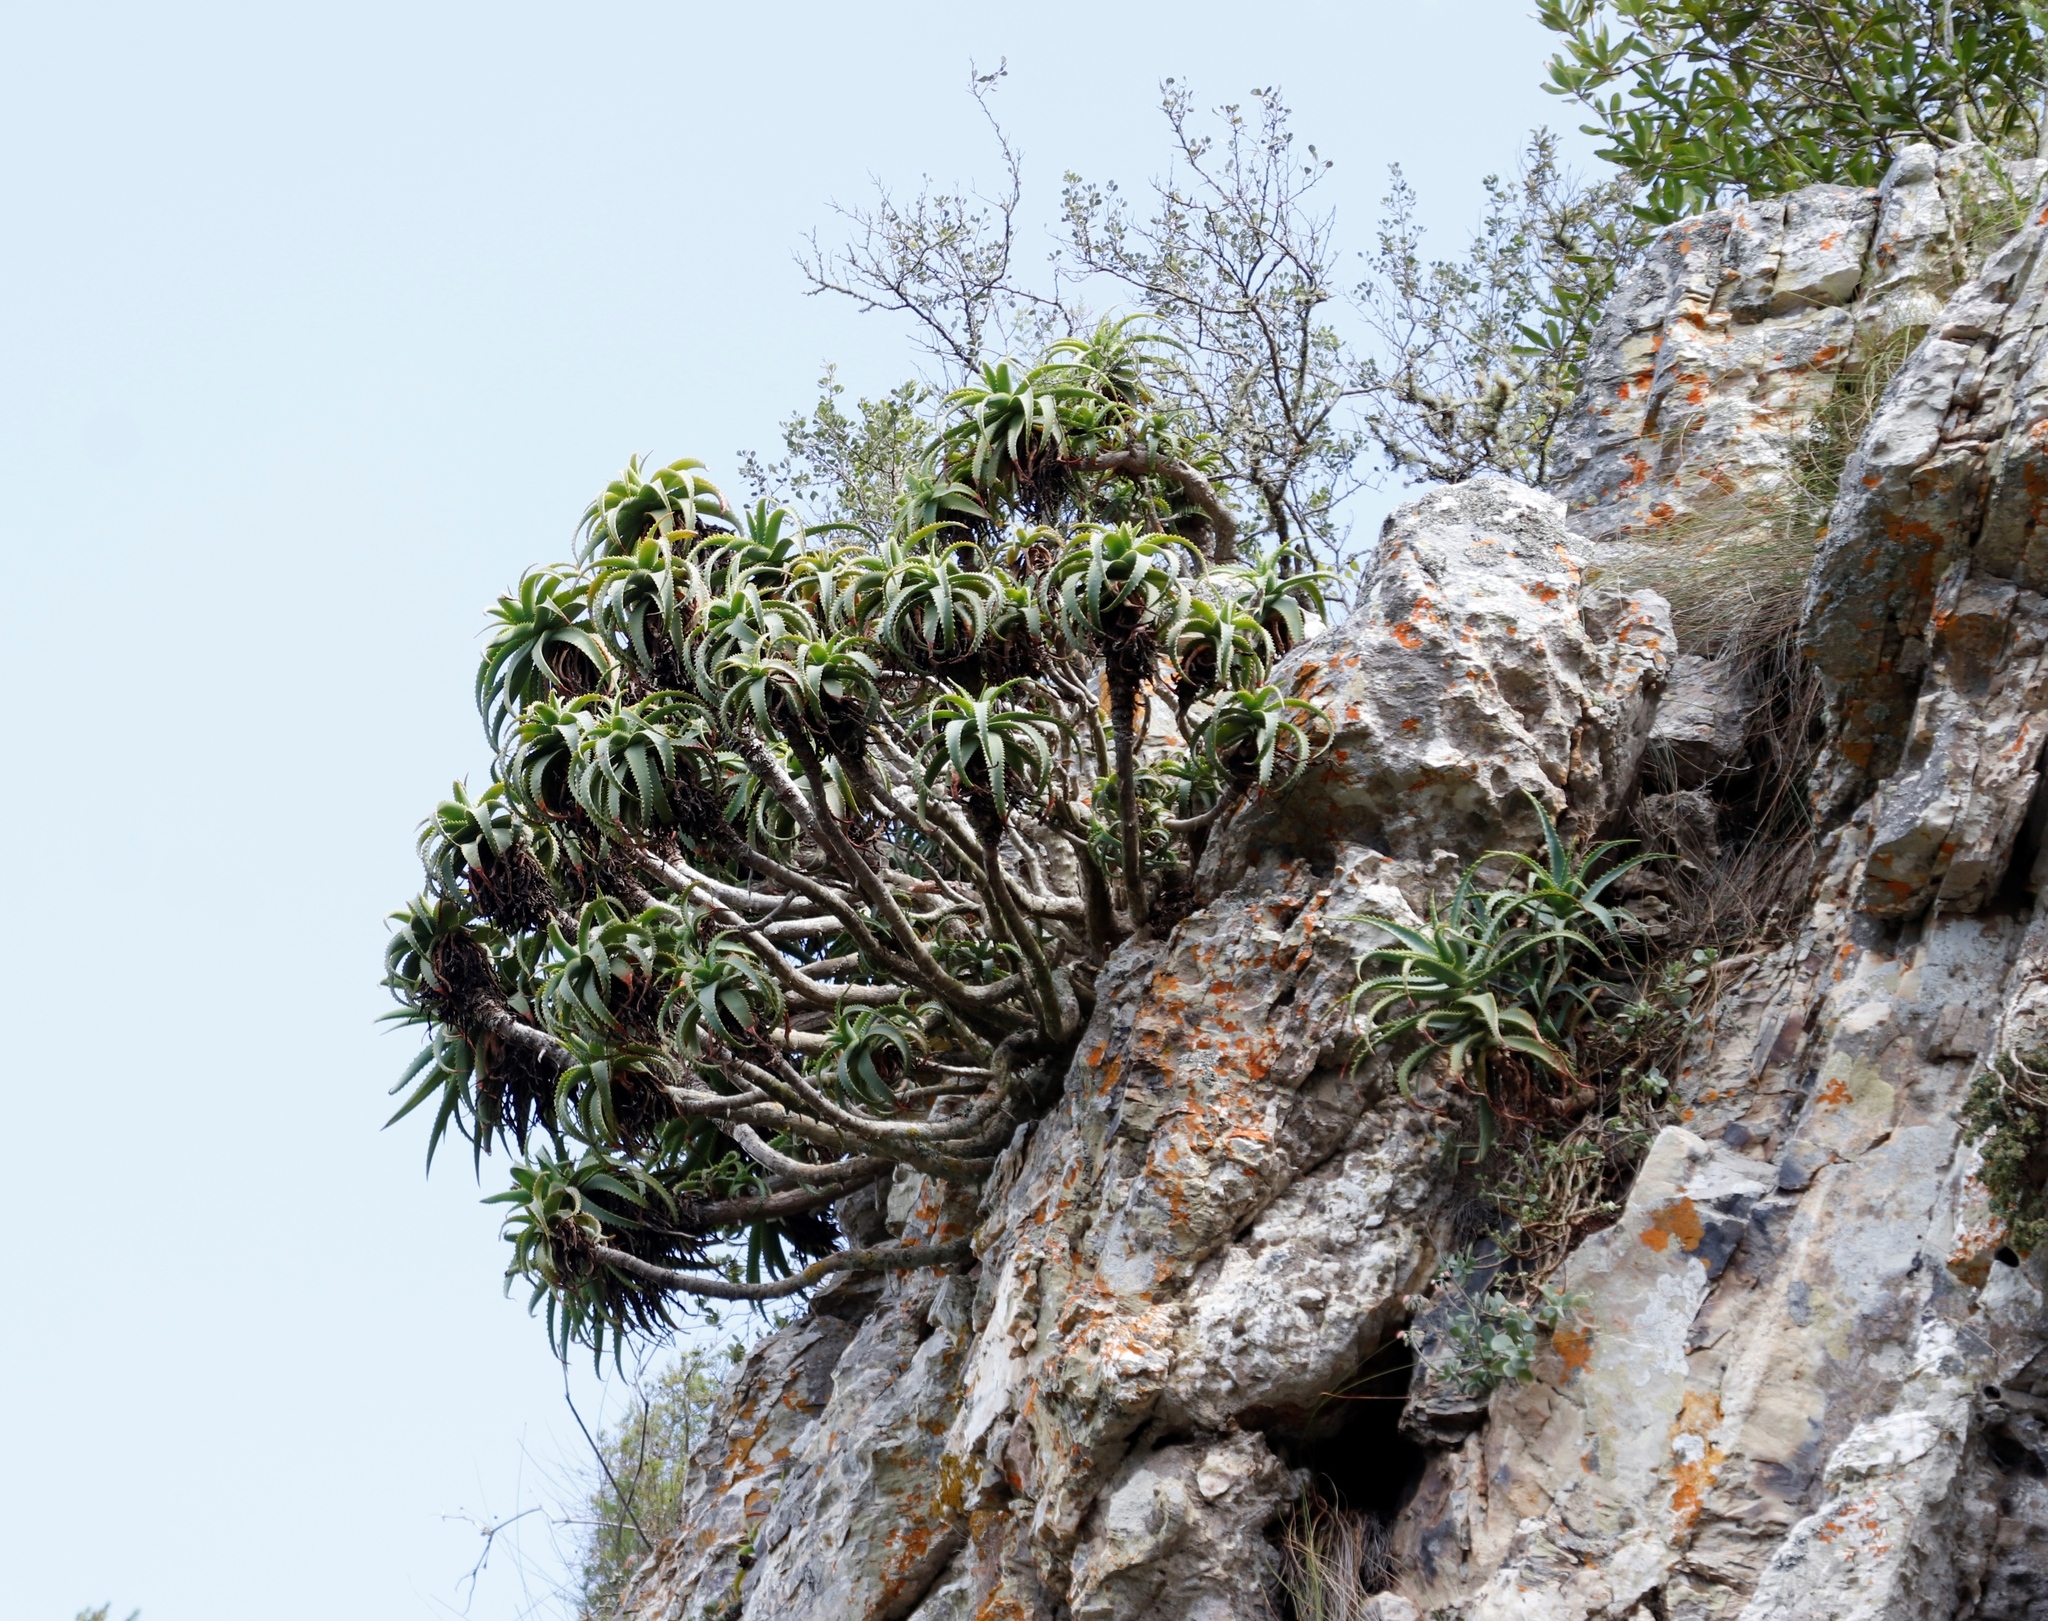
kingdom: Plantae
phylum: Tracheophyta
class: Liliopsida
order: Asparagales
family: Asphodelaceae
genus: Aloe
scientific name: Aloe arborescens
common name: Candelabra aloe
